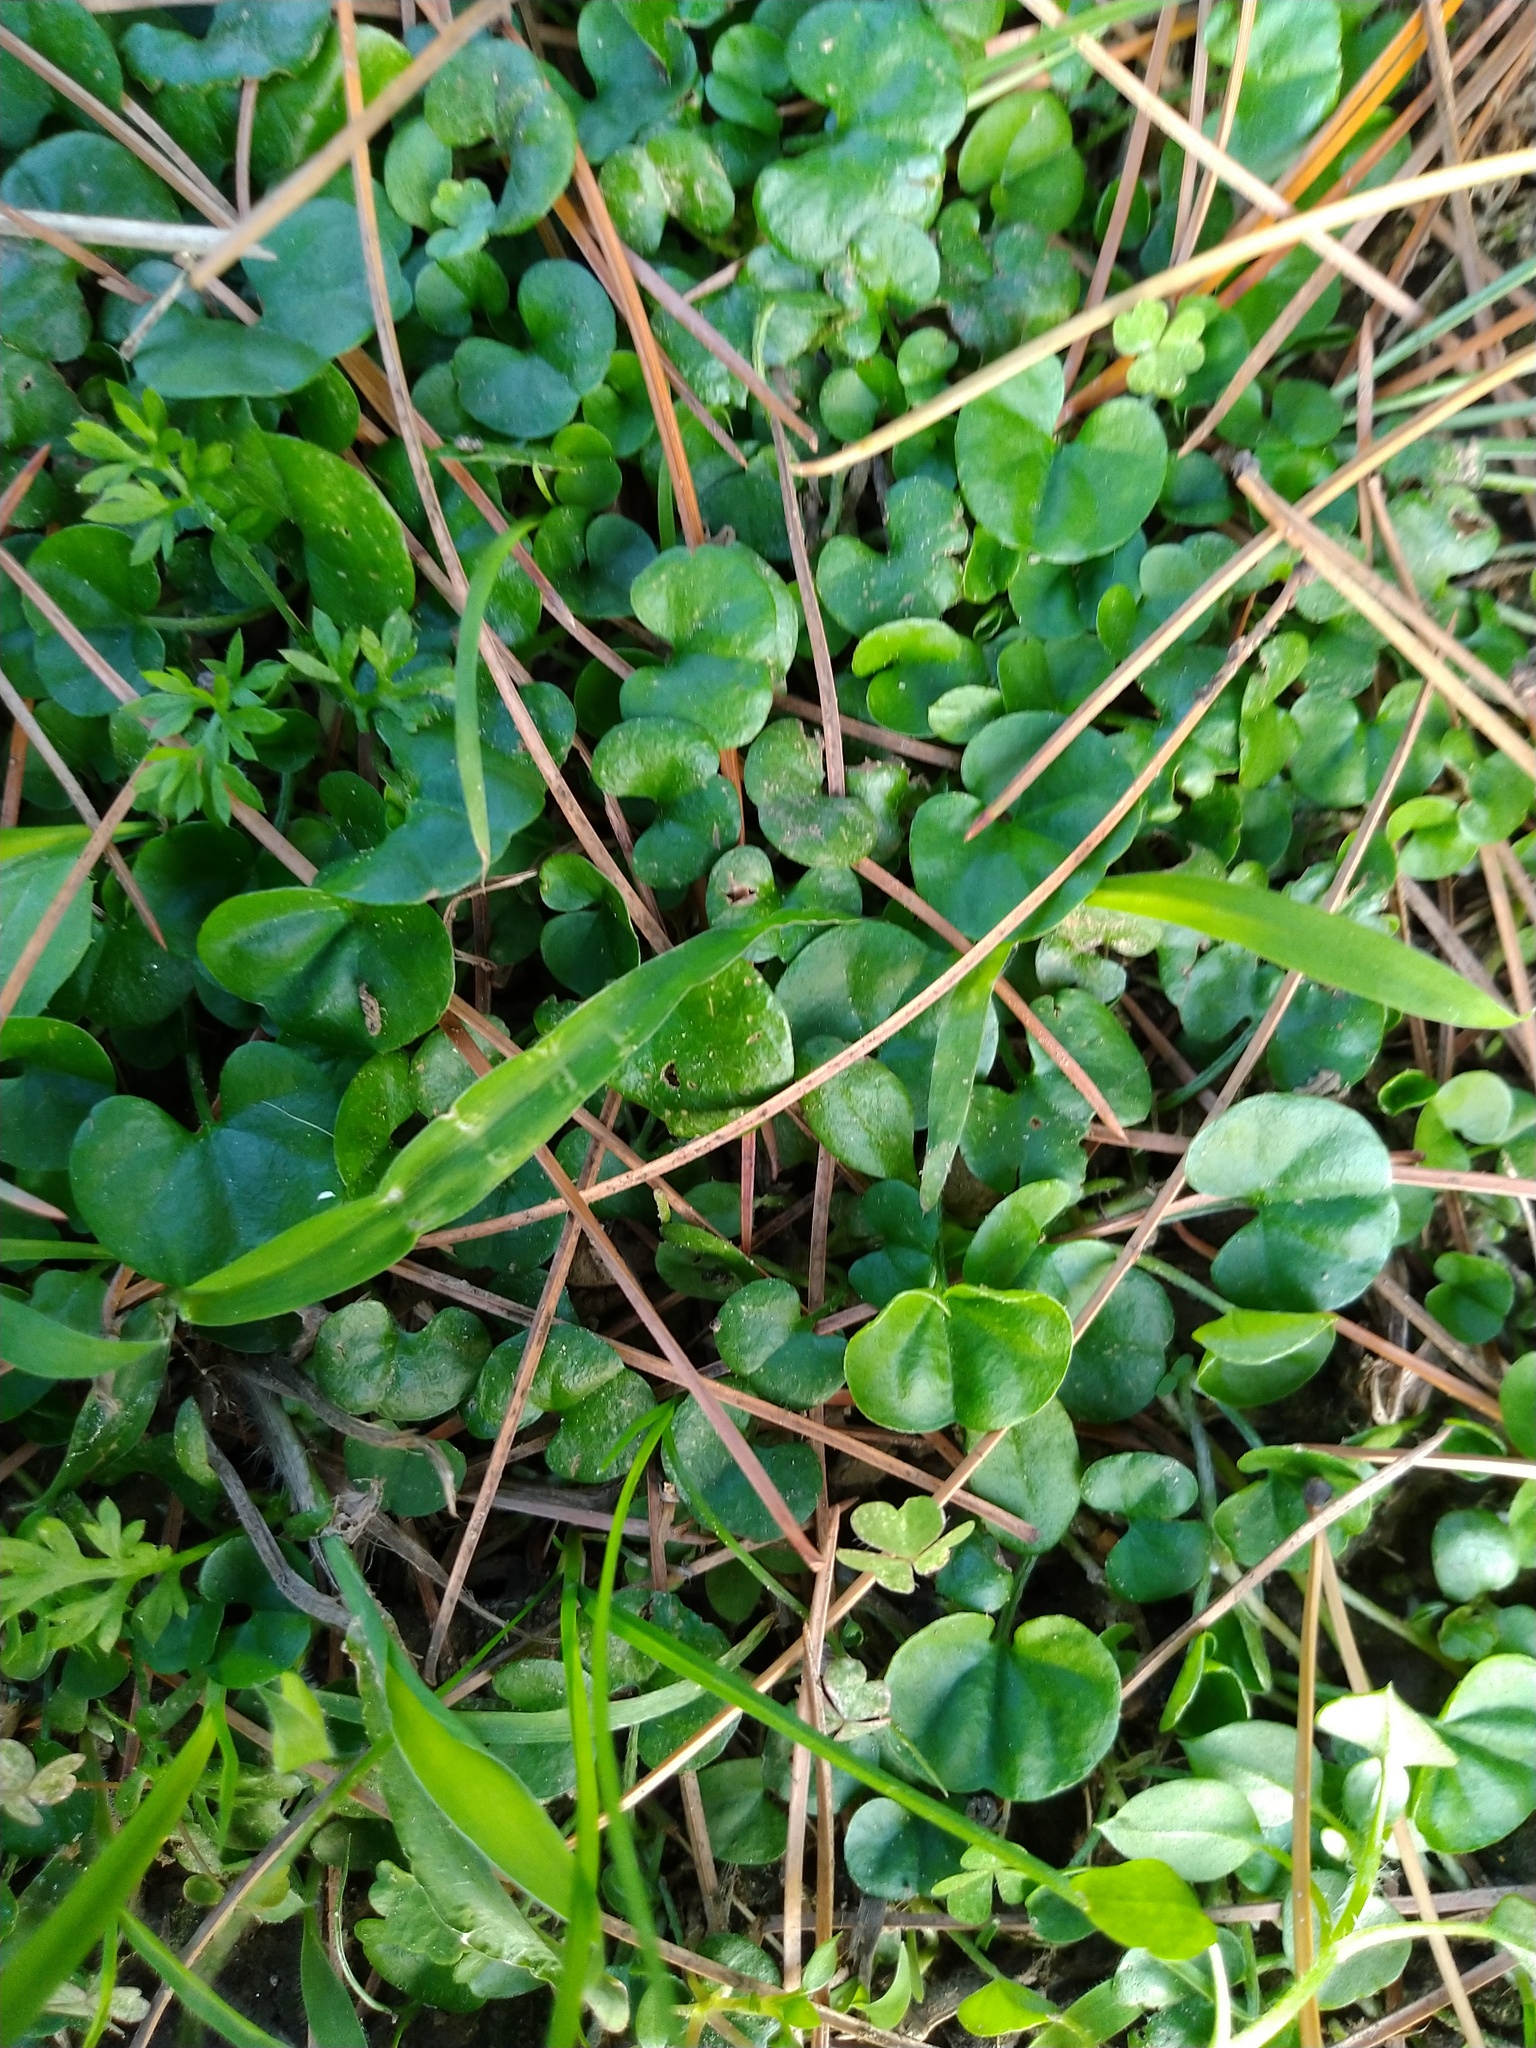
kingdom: Plantae
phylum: Tracheophyta
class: Magnoliopsida
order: Solanales
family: Convolvulaceae
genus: Dichondra
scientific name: Dichondra micrantha
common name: Kidneyweed
